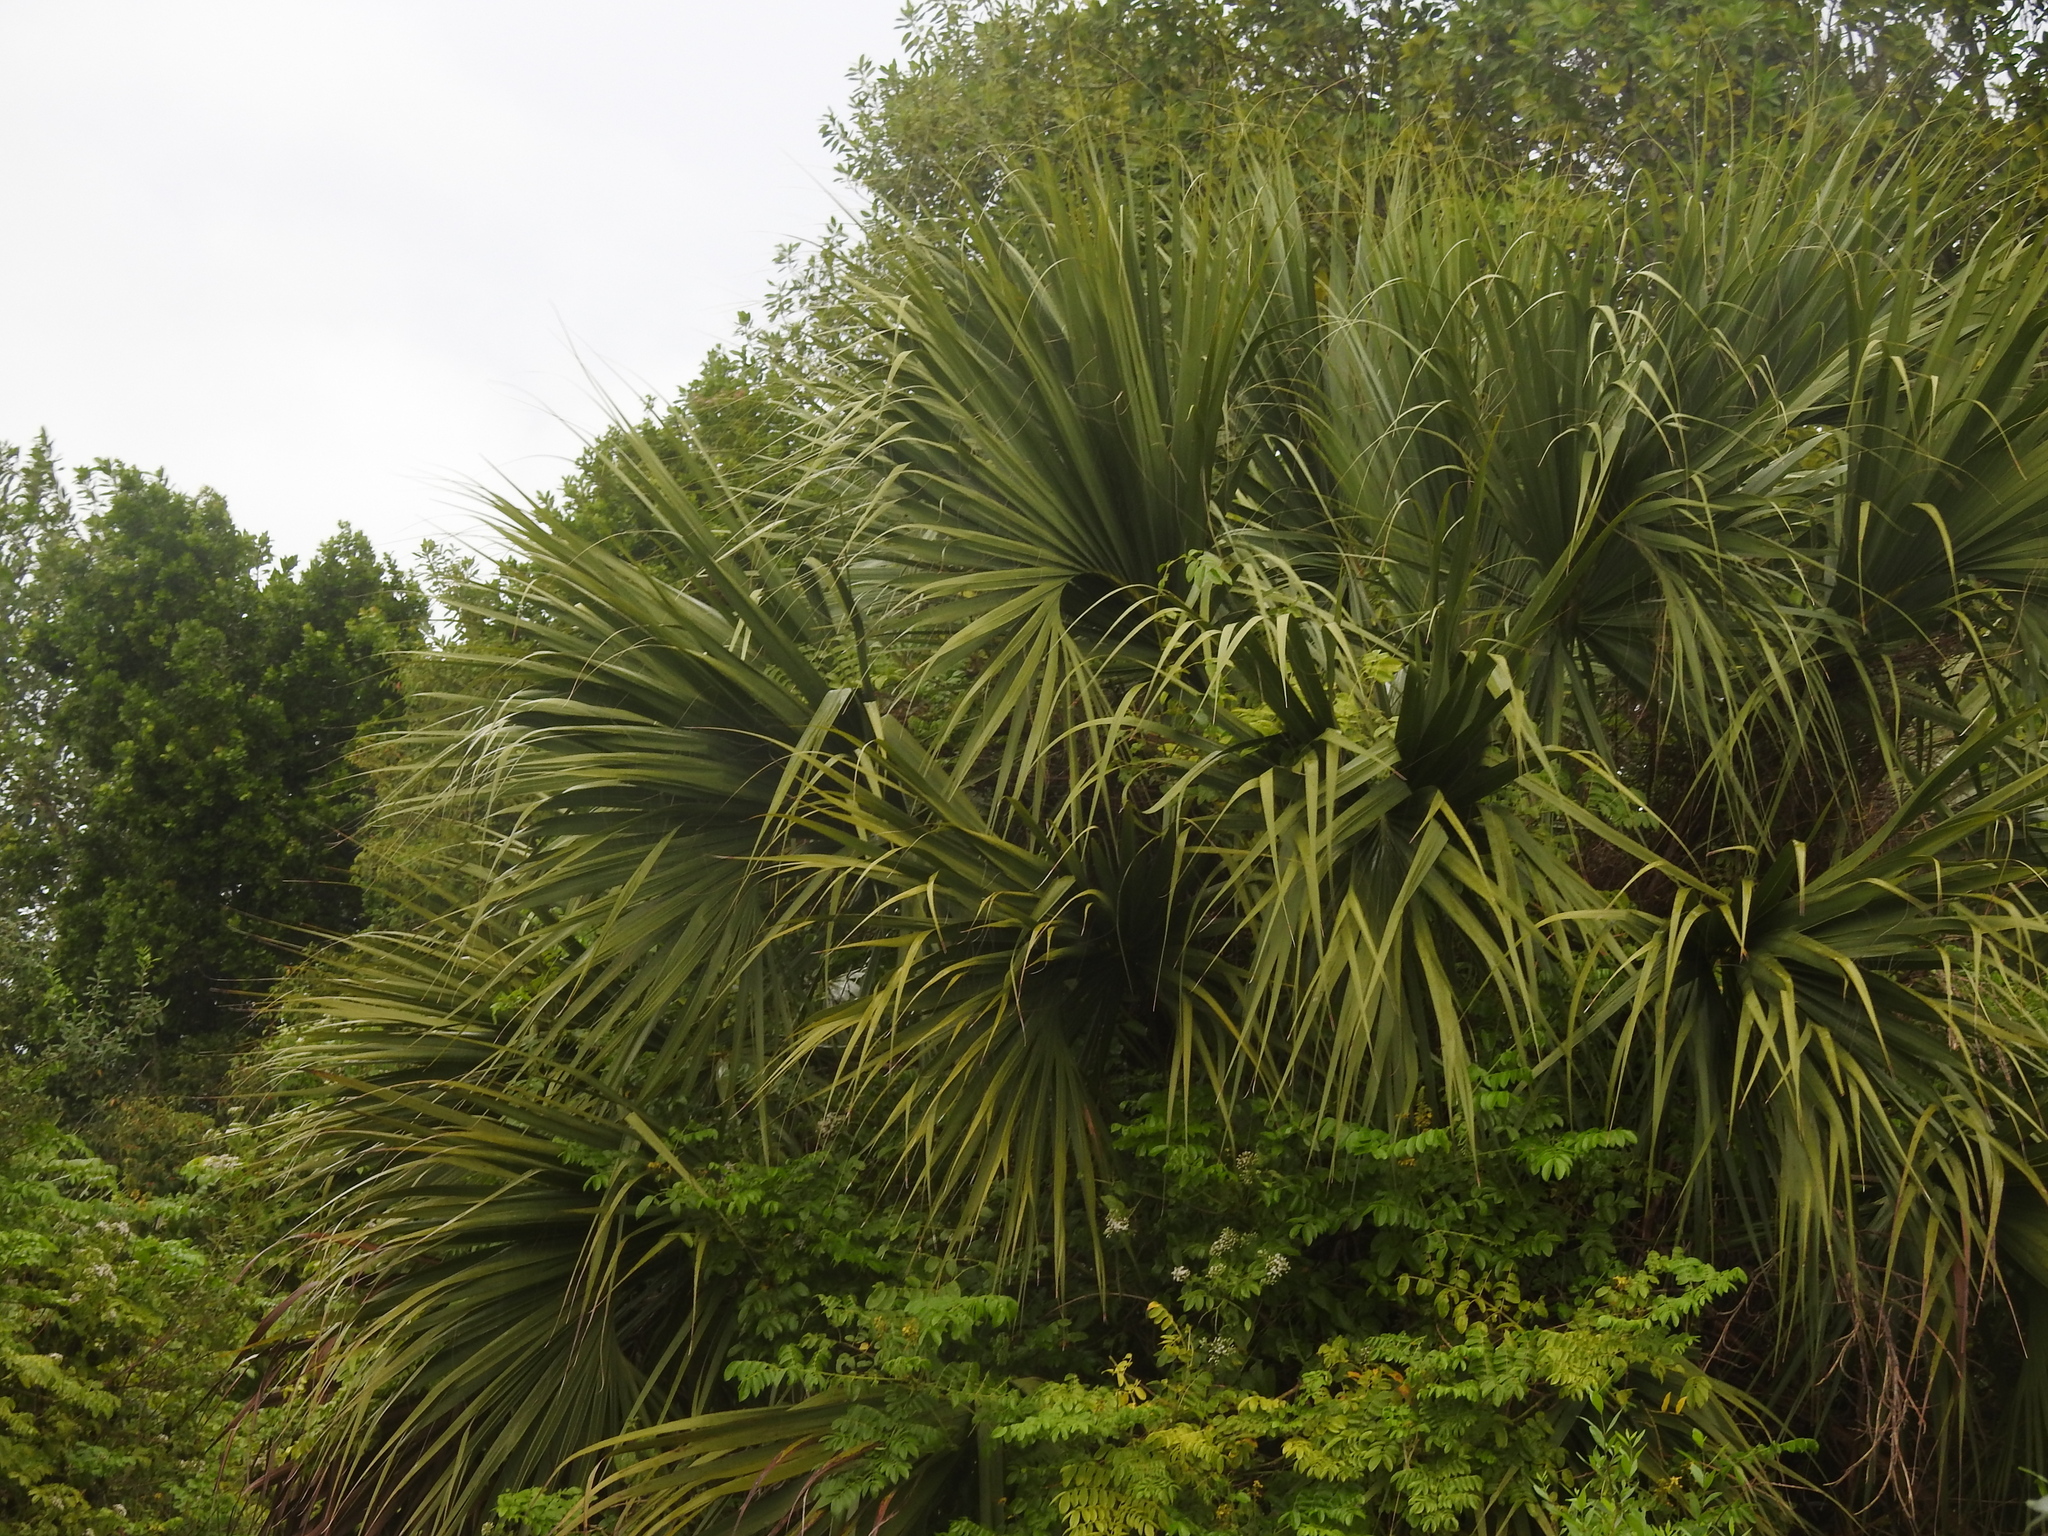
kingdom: Plantae
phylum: Tracheophyta
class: Liliopsida
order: Arecales
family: Arecaceae
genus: Sabal
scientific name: Sabal palmetto
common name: Blue palmetto
